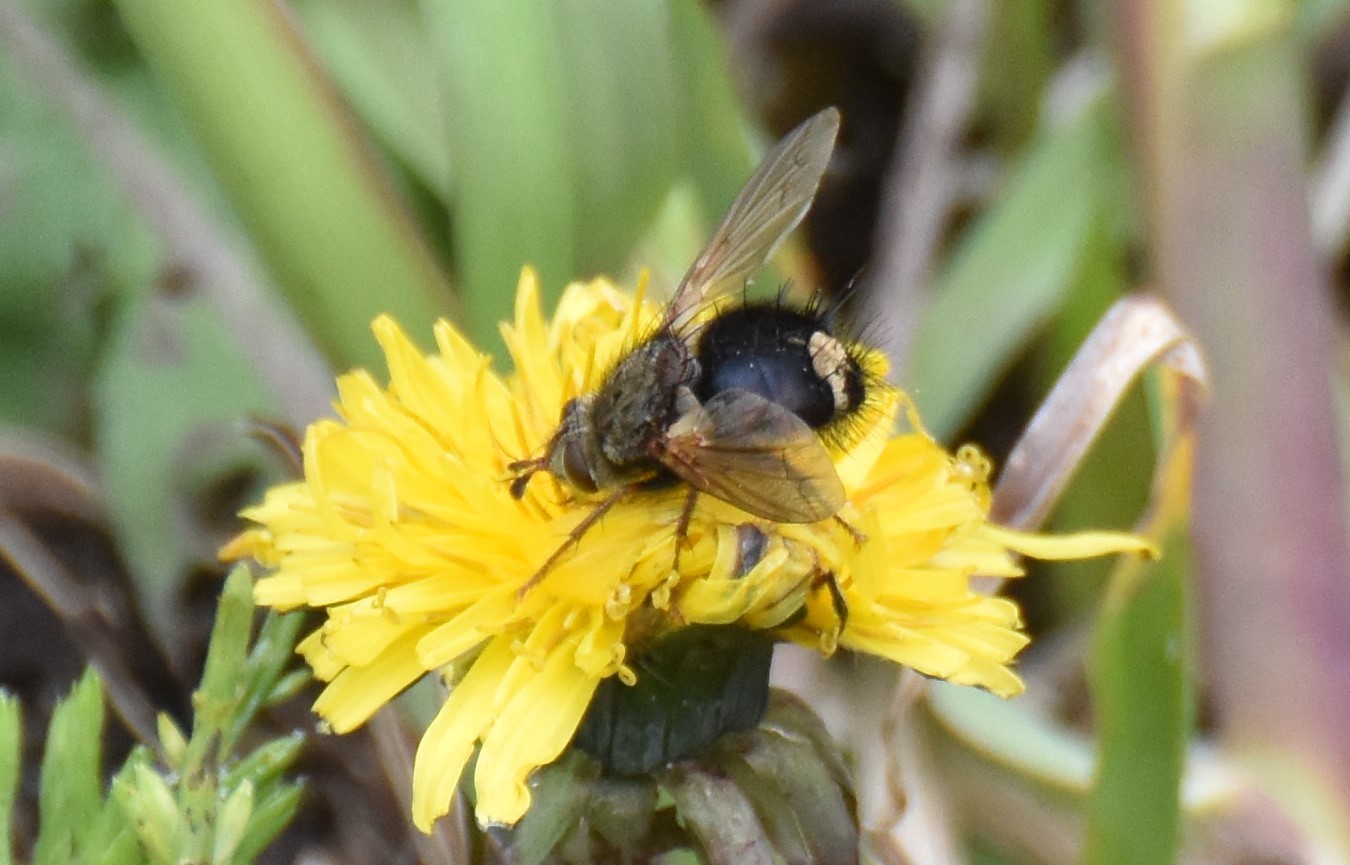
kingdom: Animalia
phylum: Arthropoda
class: Insecta
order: Diptera
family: Tachinidae
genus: Epalpus
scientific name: Epalpus signifer
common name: Early tachinid fly
